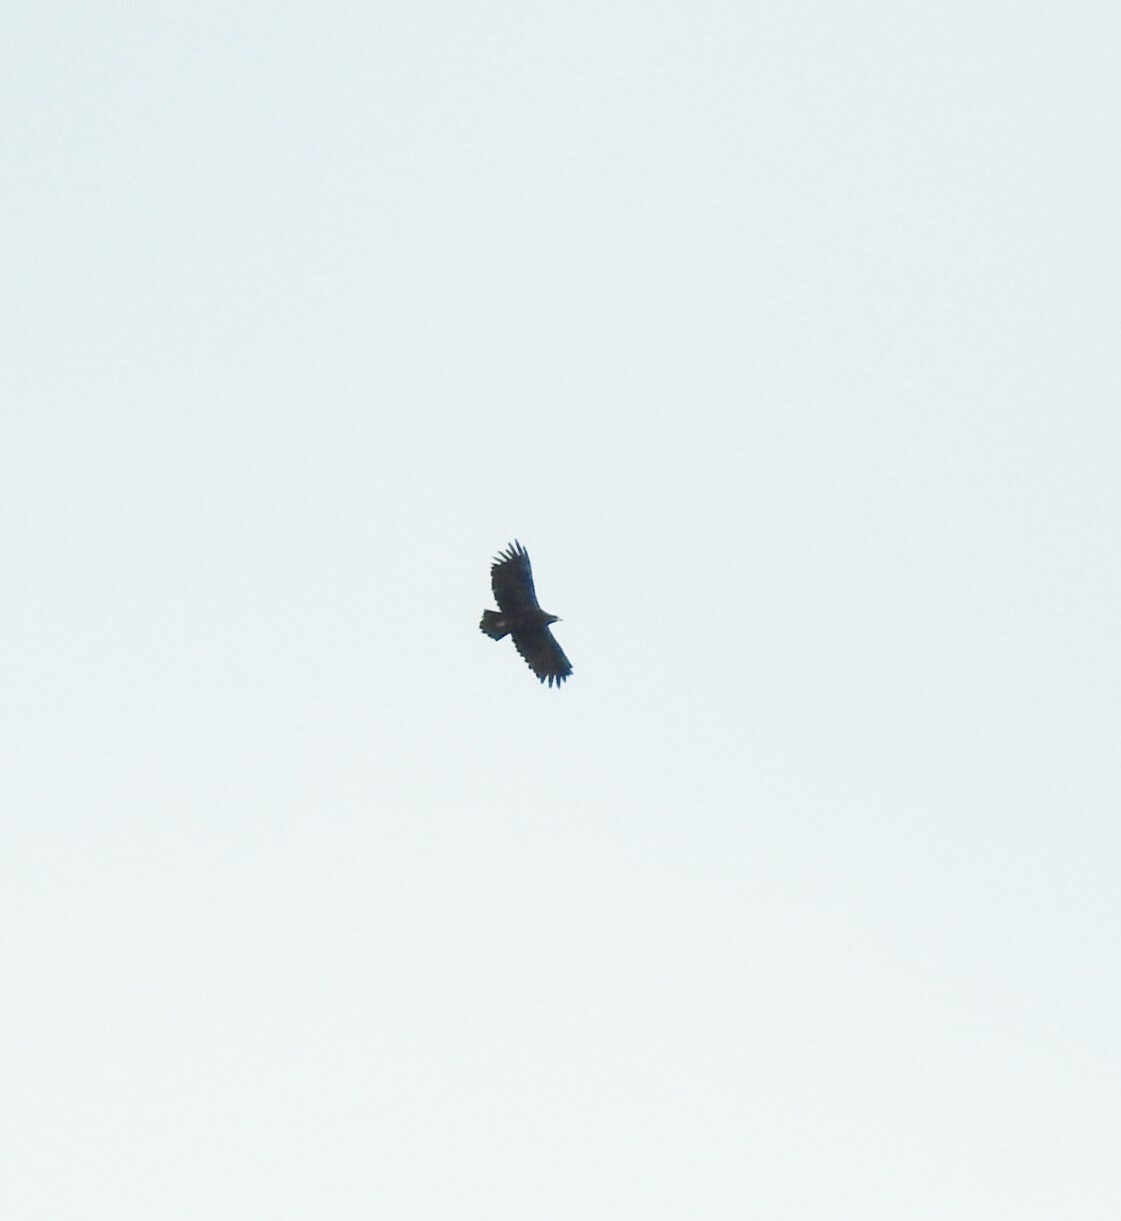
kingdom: Animalia
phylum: Chordata
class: Aves
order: Accipitriformes
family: Accipitridae
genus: Aquila
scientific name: Aquila clanga
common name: Greater spotted eagle
